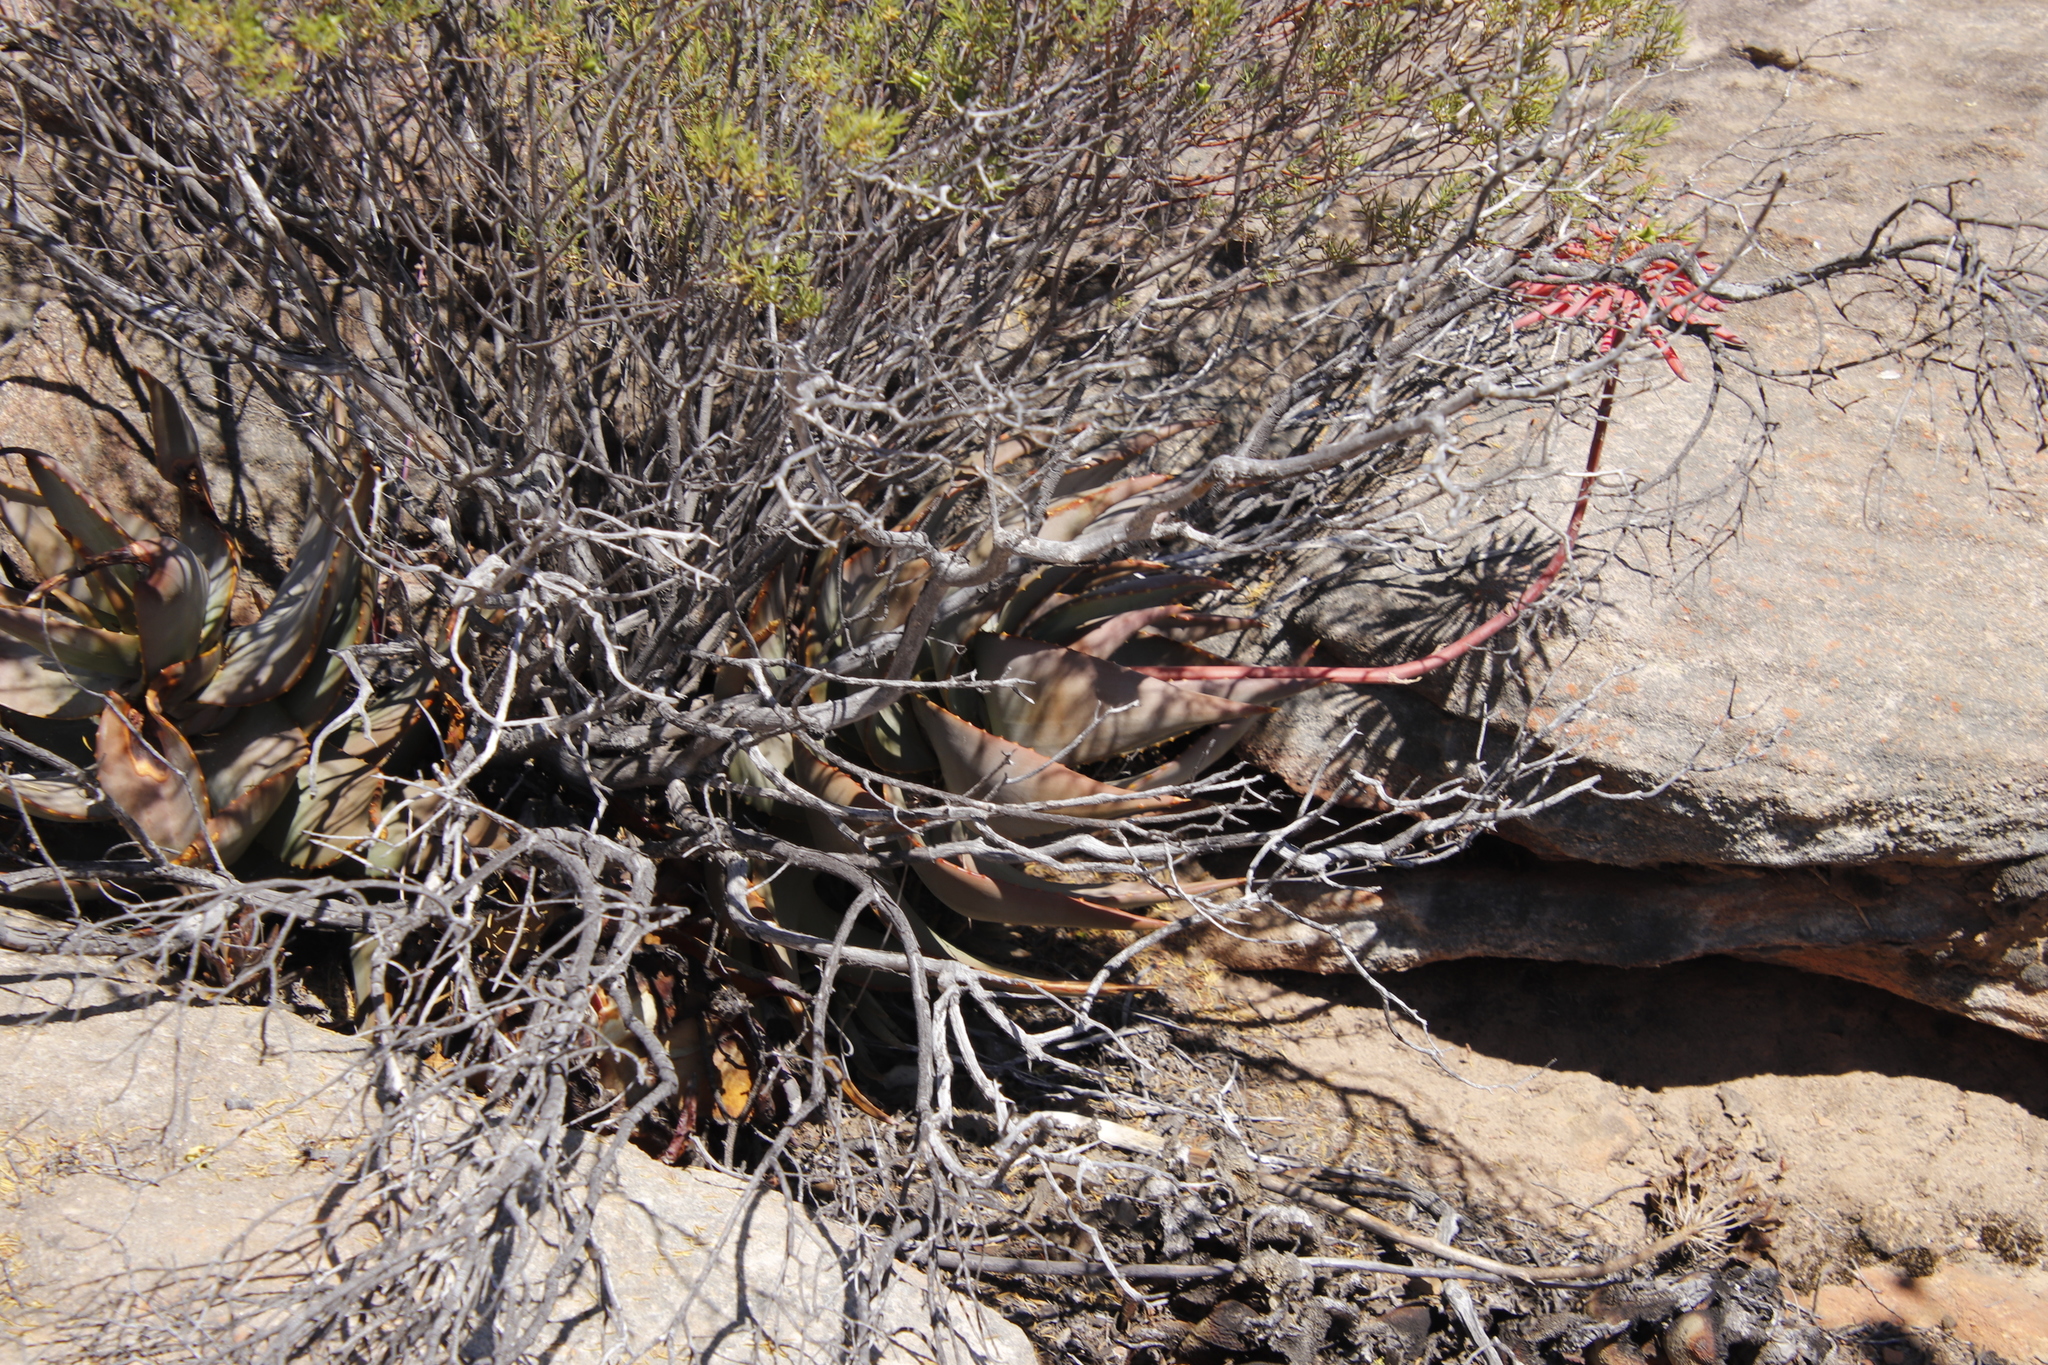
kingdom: Plantae
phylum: Tracheophyta
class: Liliopsida
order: Asparagales
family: Asphodelaceae
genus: Aloe
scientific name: Aloe perfoliata
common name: Mitra aloe
